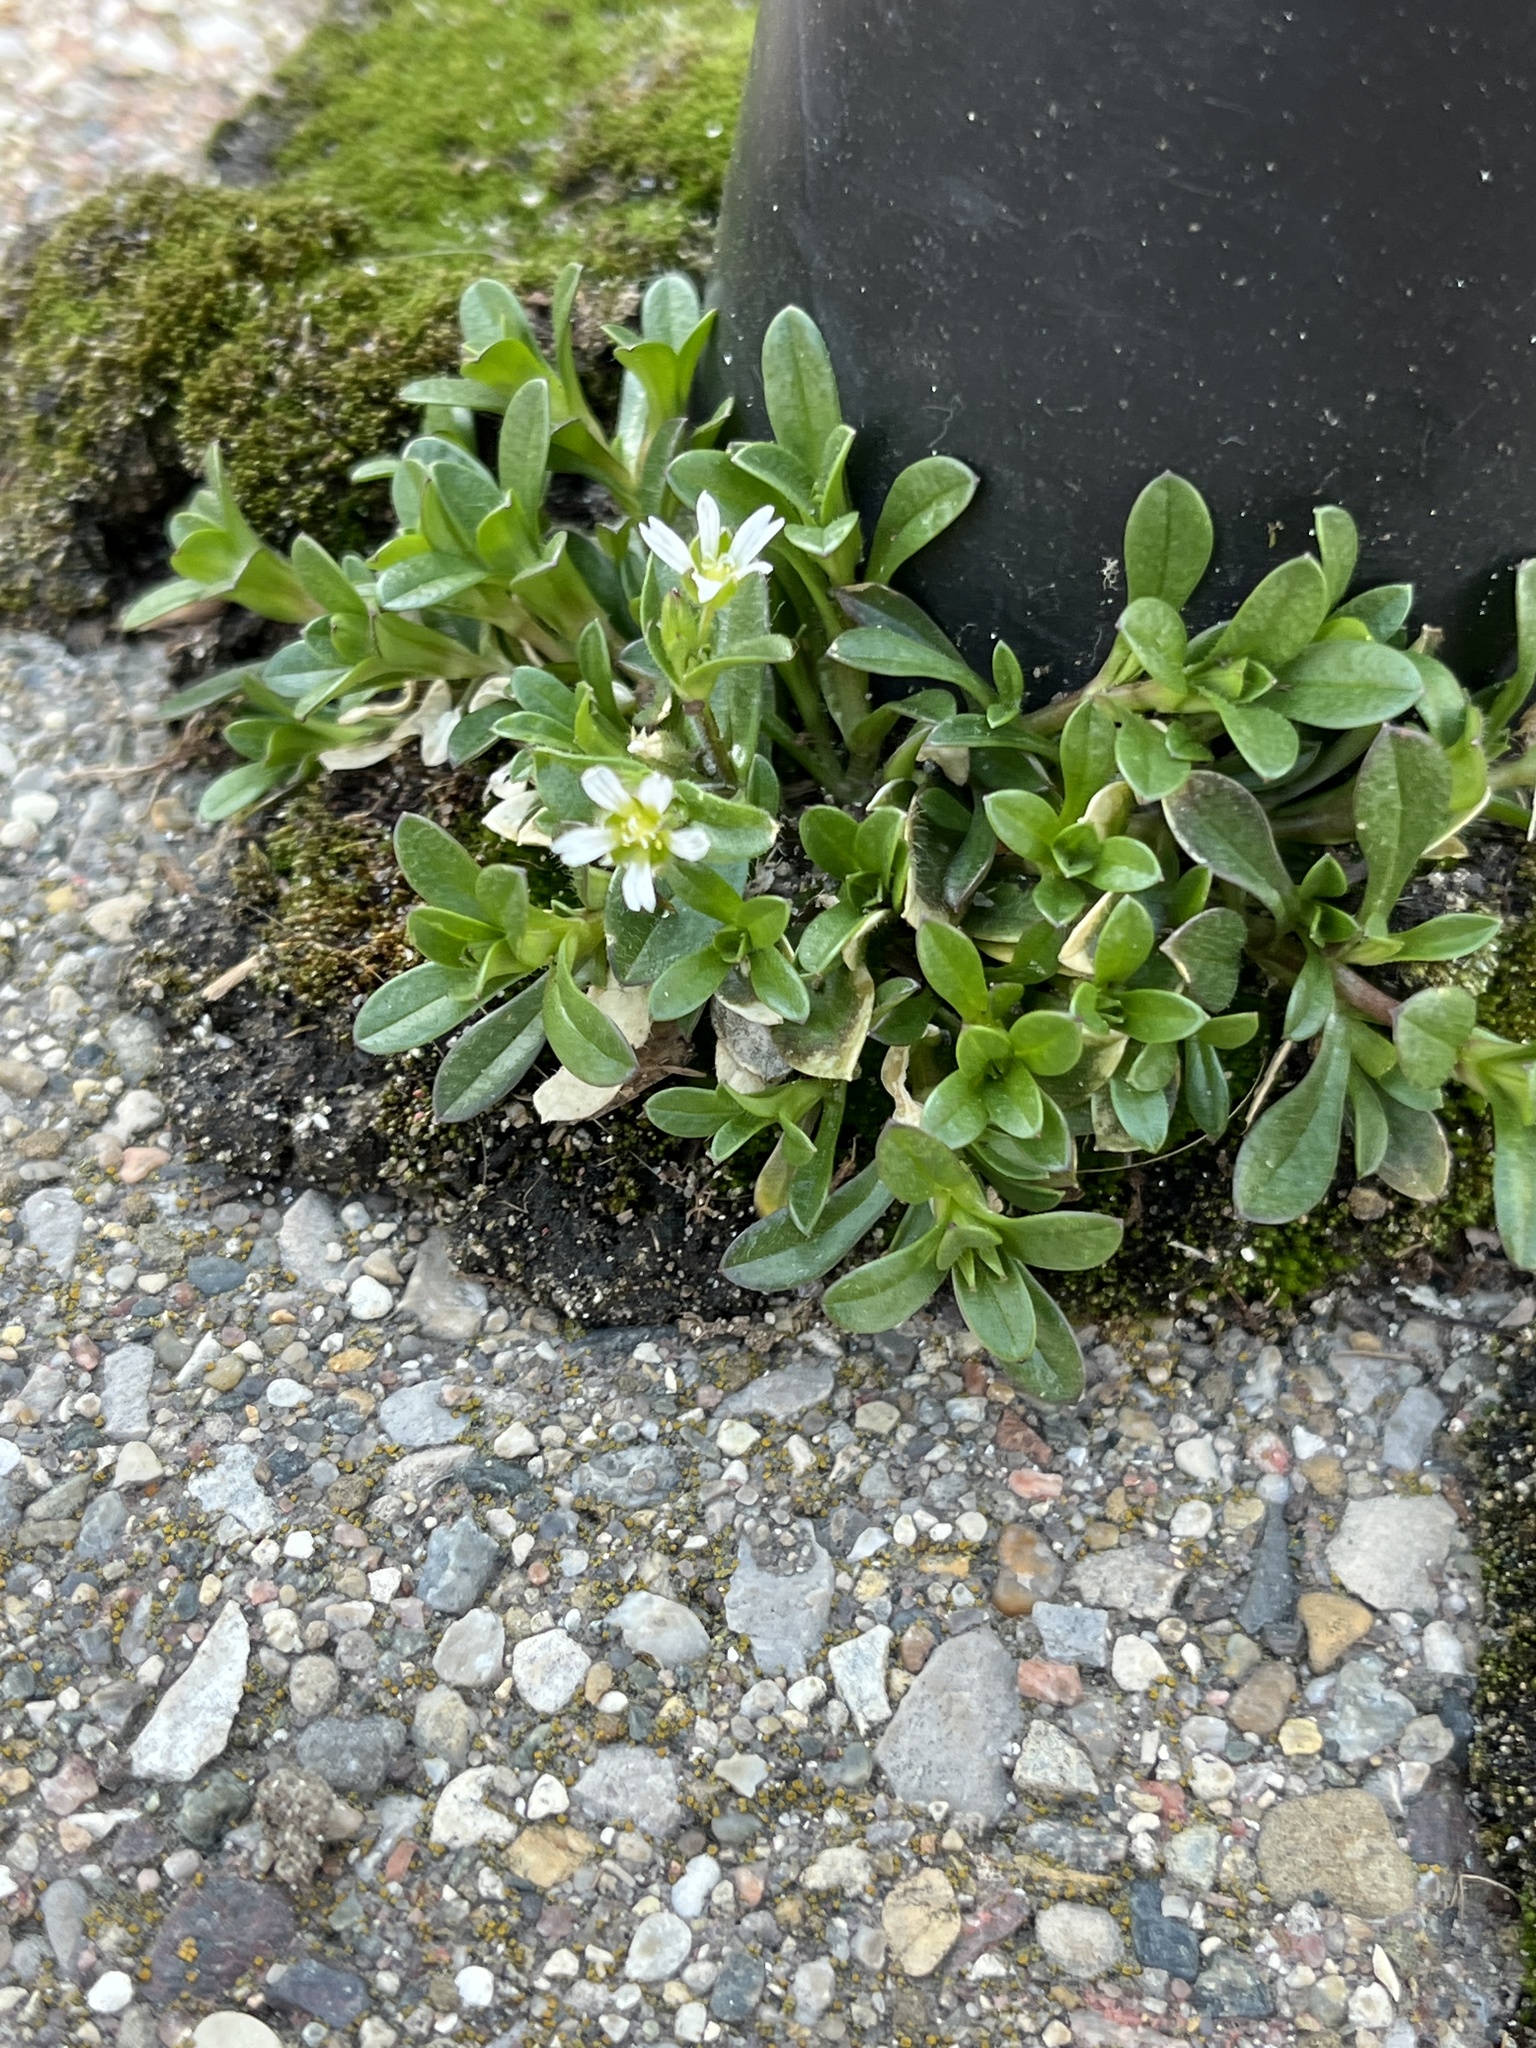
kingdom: Plantae
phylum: Tracheophyta
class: Magnoliopsida
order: Caryophyllales
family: Caryophyllaceae
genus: Cerastium
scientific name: Cerastium fontanum
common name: Common mouse-ear
